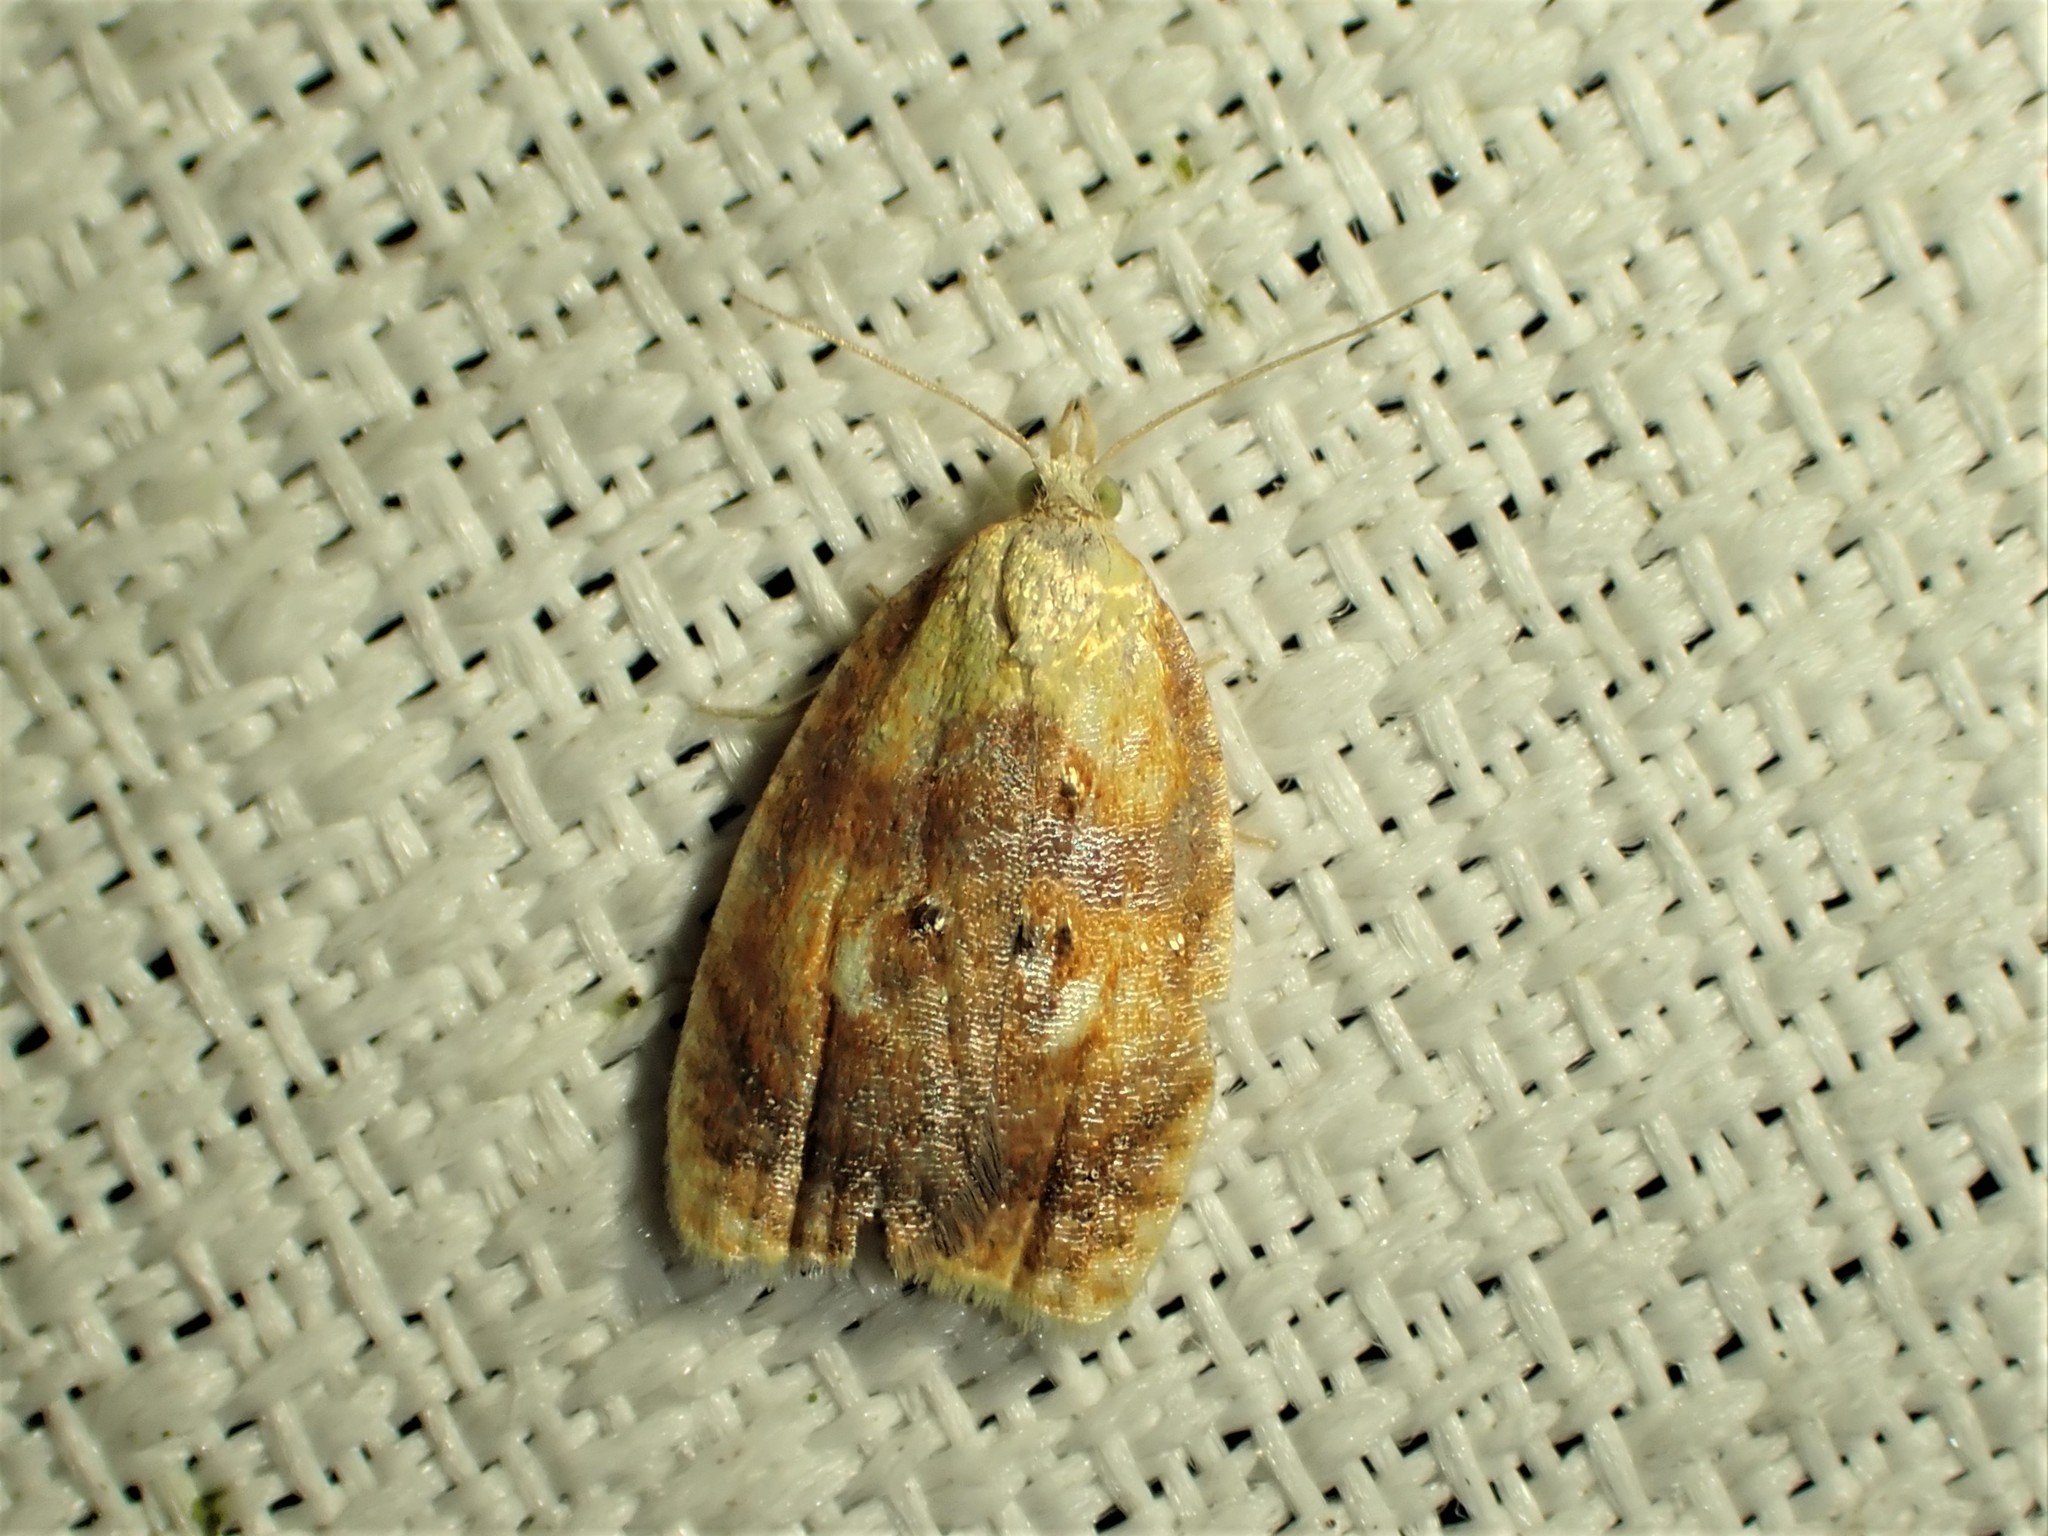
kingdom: Animalia
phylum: Arthropoda
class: Insecta
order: Lepidoptera
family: Tortricidae
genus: Acleris
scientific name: Acleris curvalana
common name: Blueberry leaftier moth
